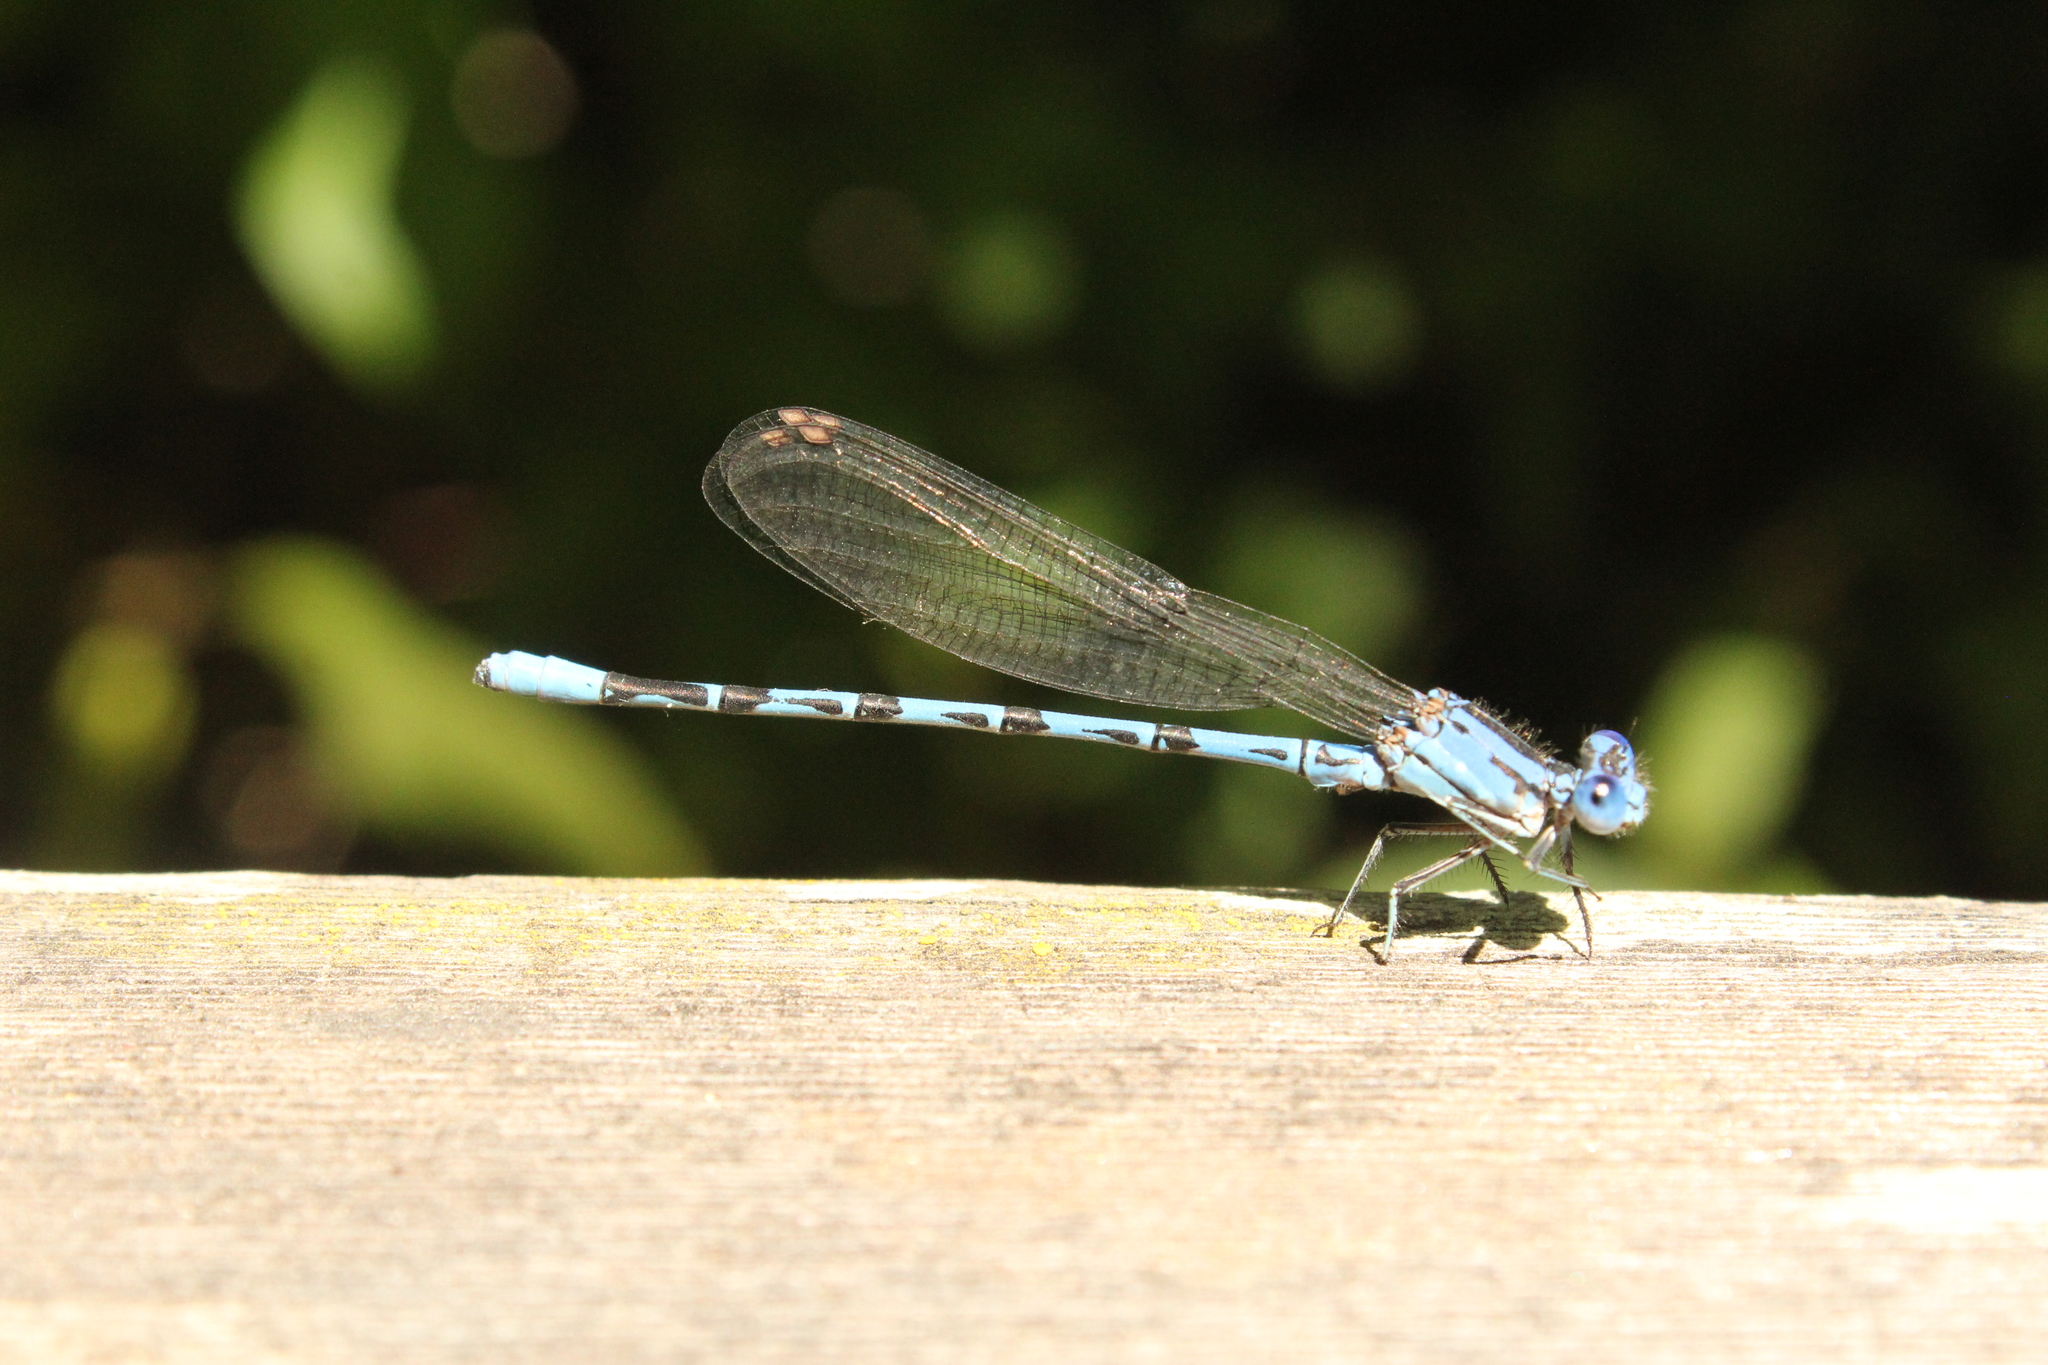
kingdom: Animalia
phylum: Arthropoda
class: Insecta
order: Odonata
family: Coenagrionidae
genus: Argia
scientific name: Argia vivida
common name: Vivid dancer
